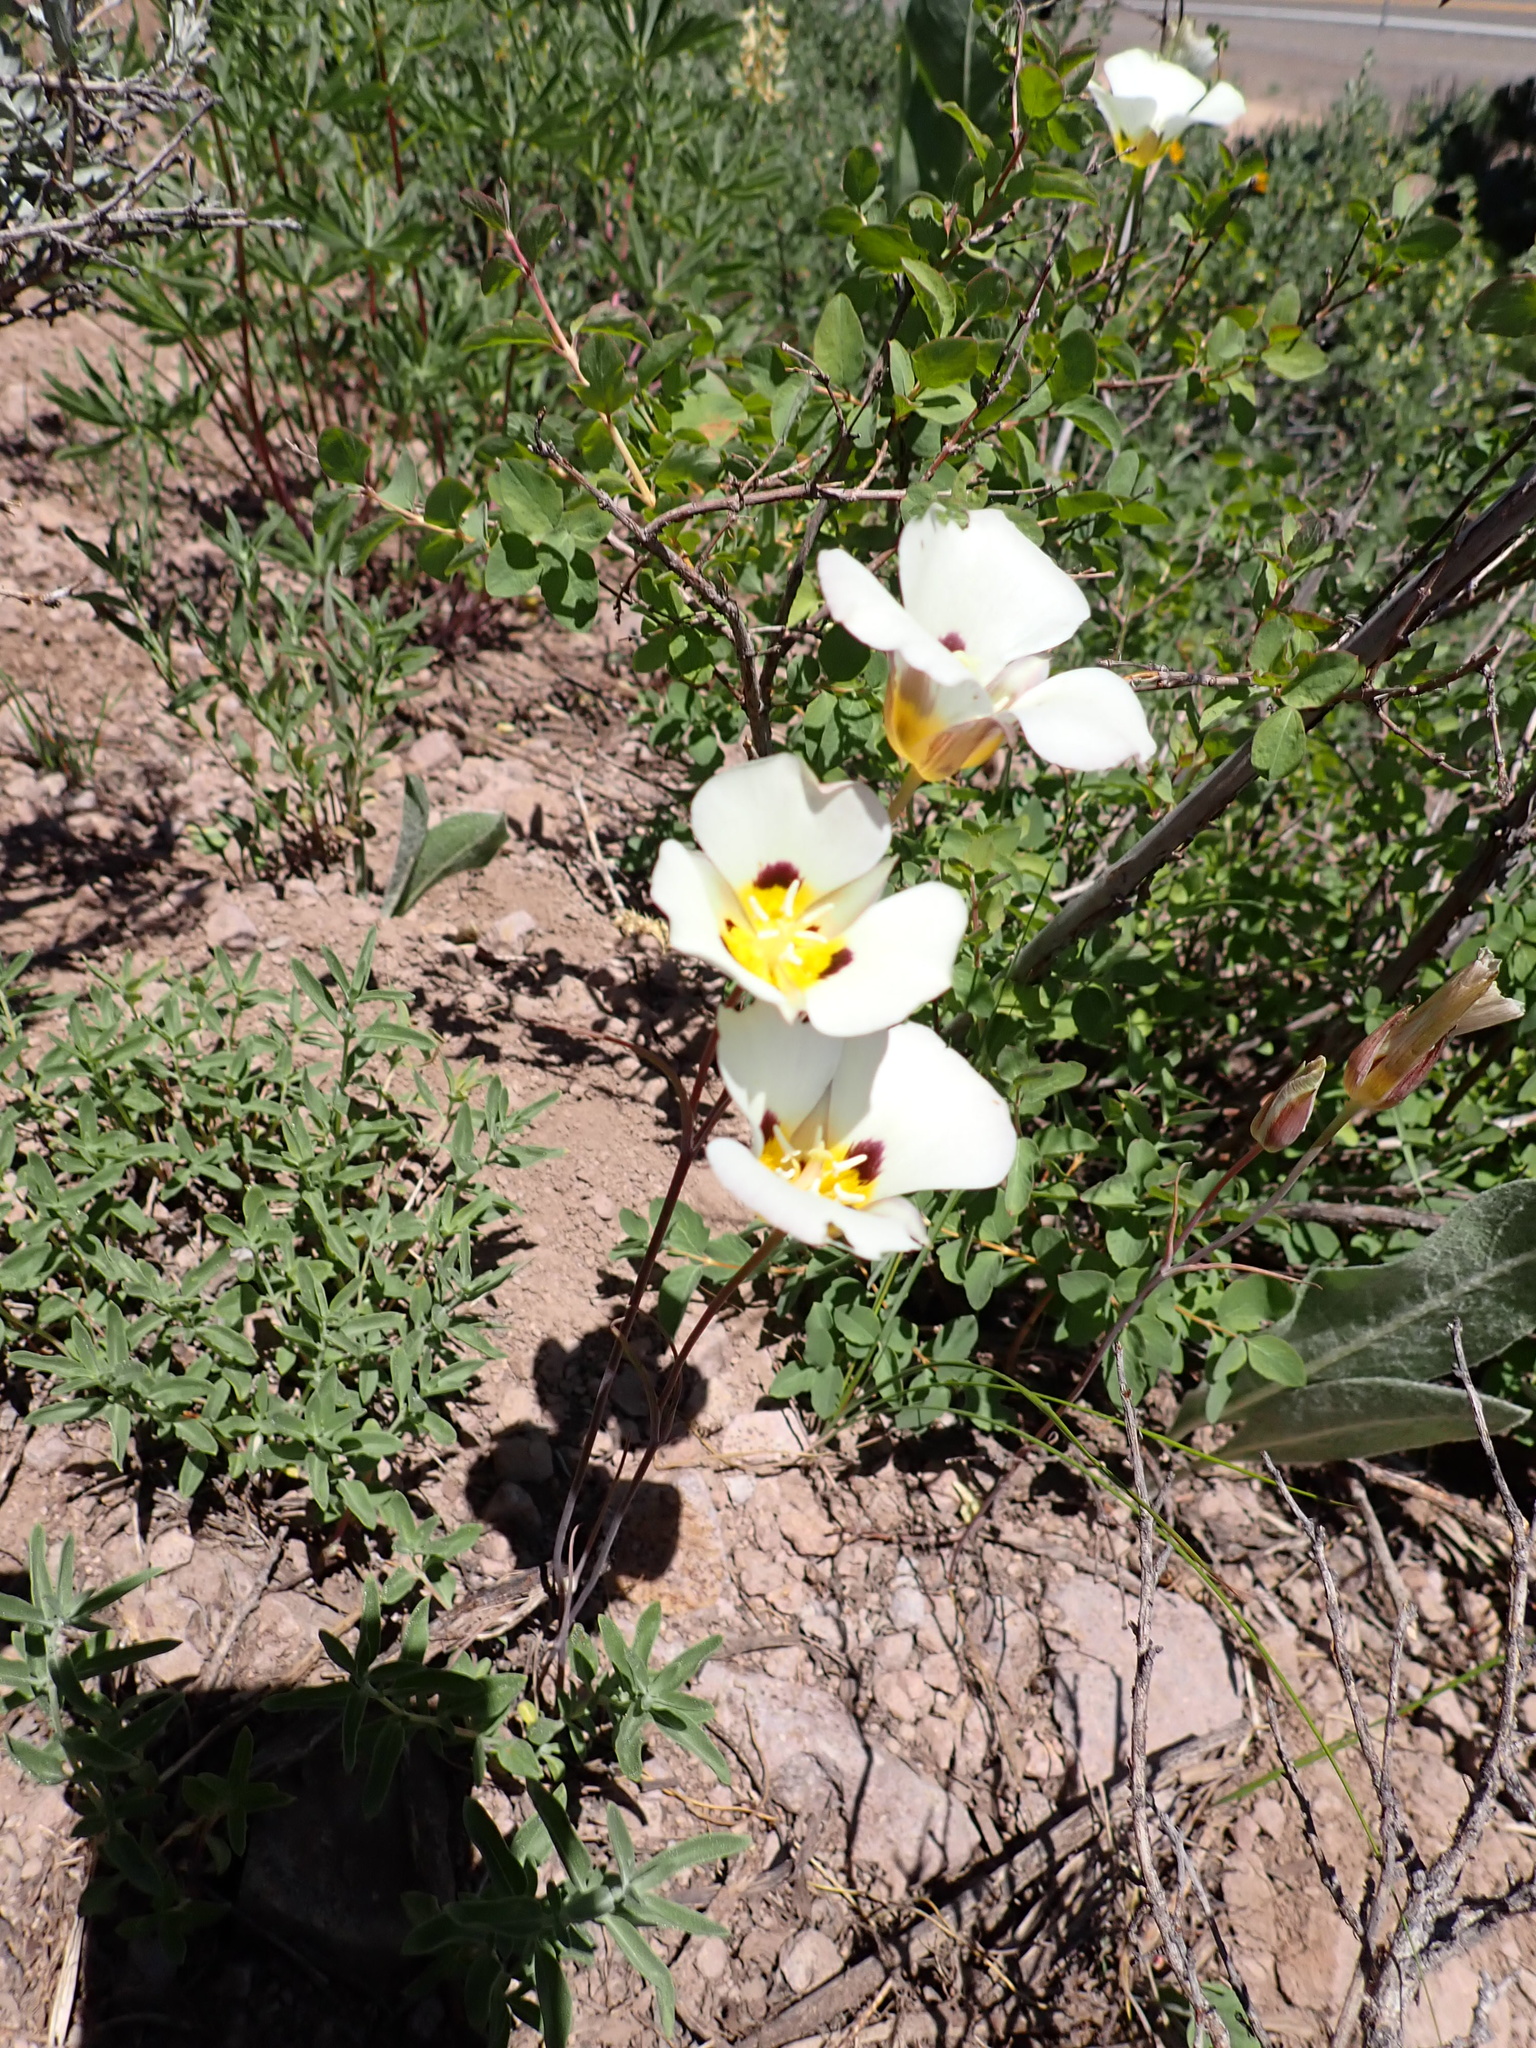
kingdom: Plantae
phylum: Tracheophyta
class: Liliopsida
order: Liliales
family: Liliaceae
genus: Calochortus
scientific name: Calochortus leichtlinii
